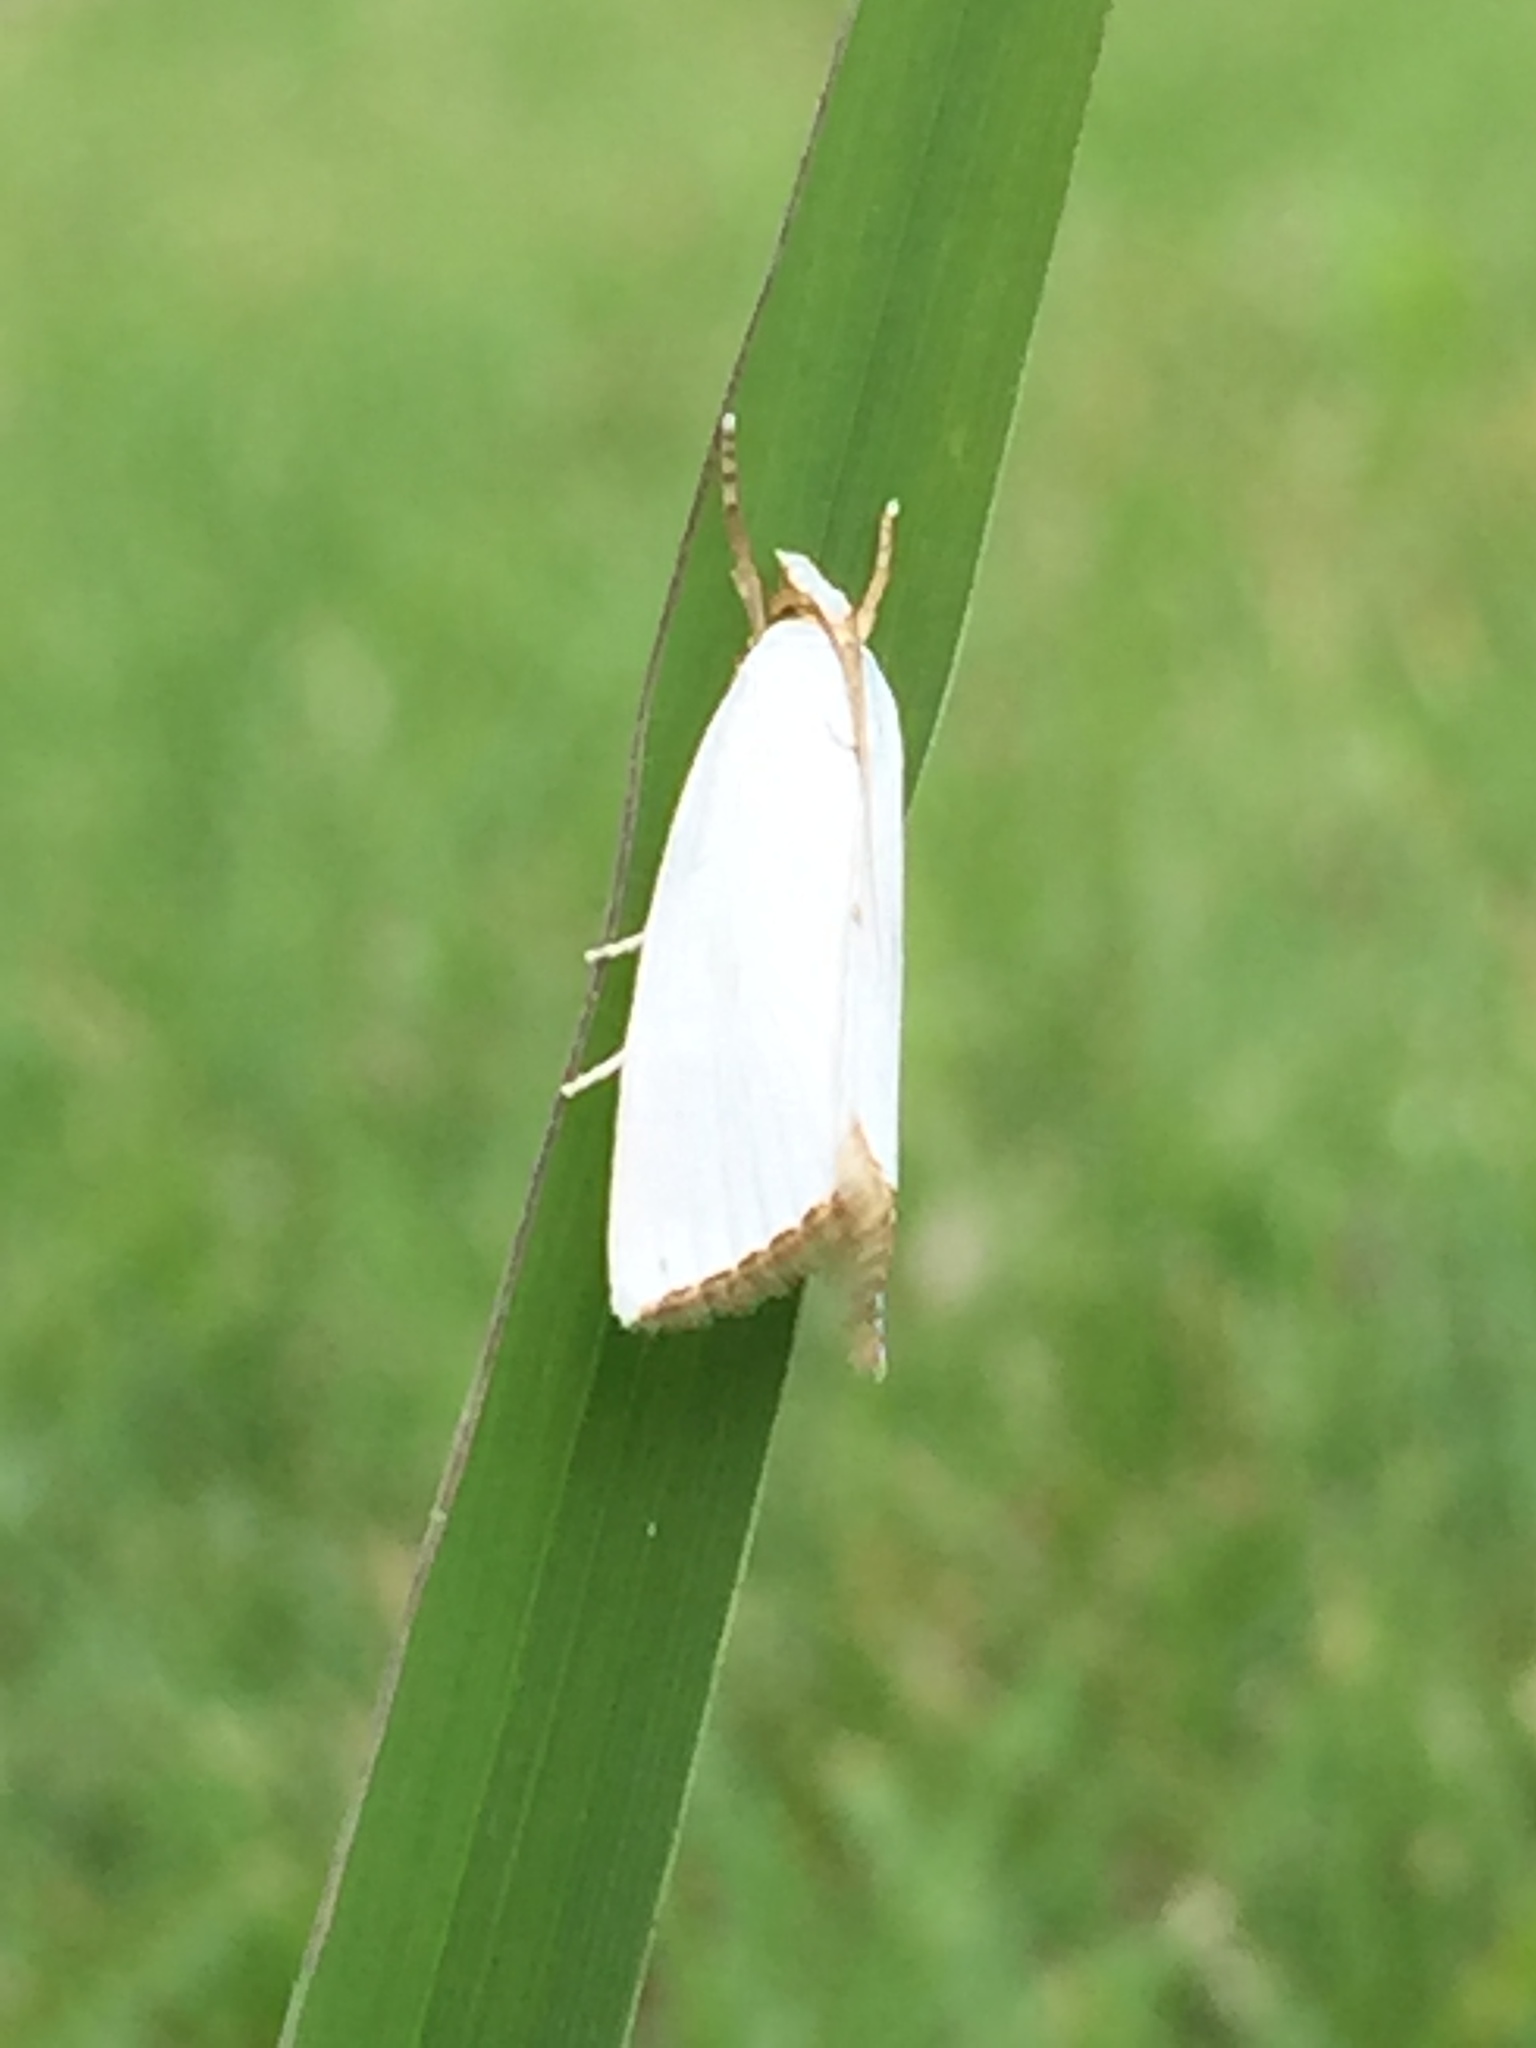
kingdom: Animalia
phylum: Arthropoda
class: Insecta
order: Lepidoptera
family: Crambidae
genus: Argyria
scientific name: Argyria nivalis
